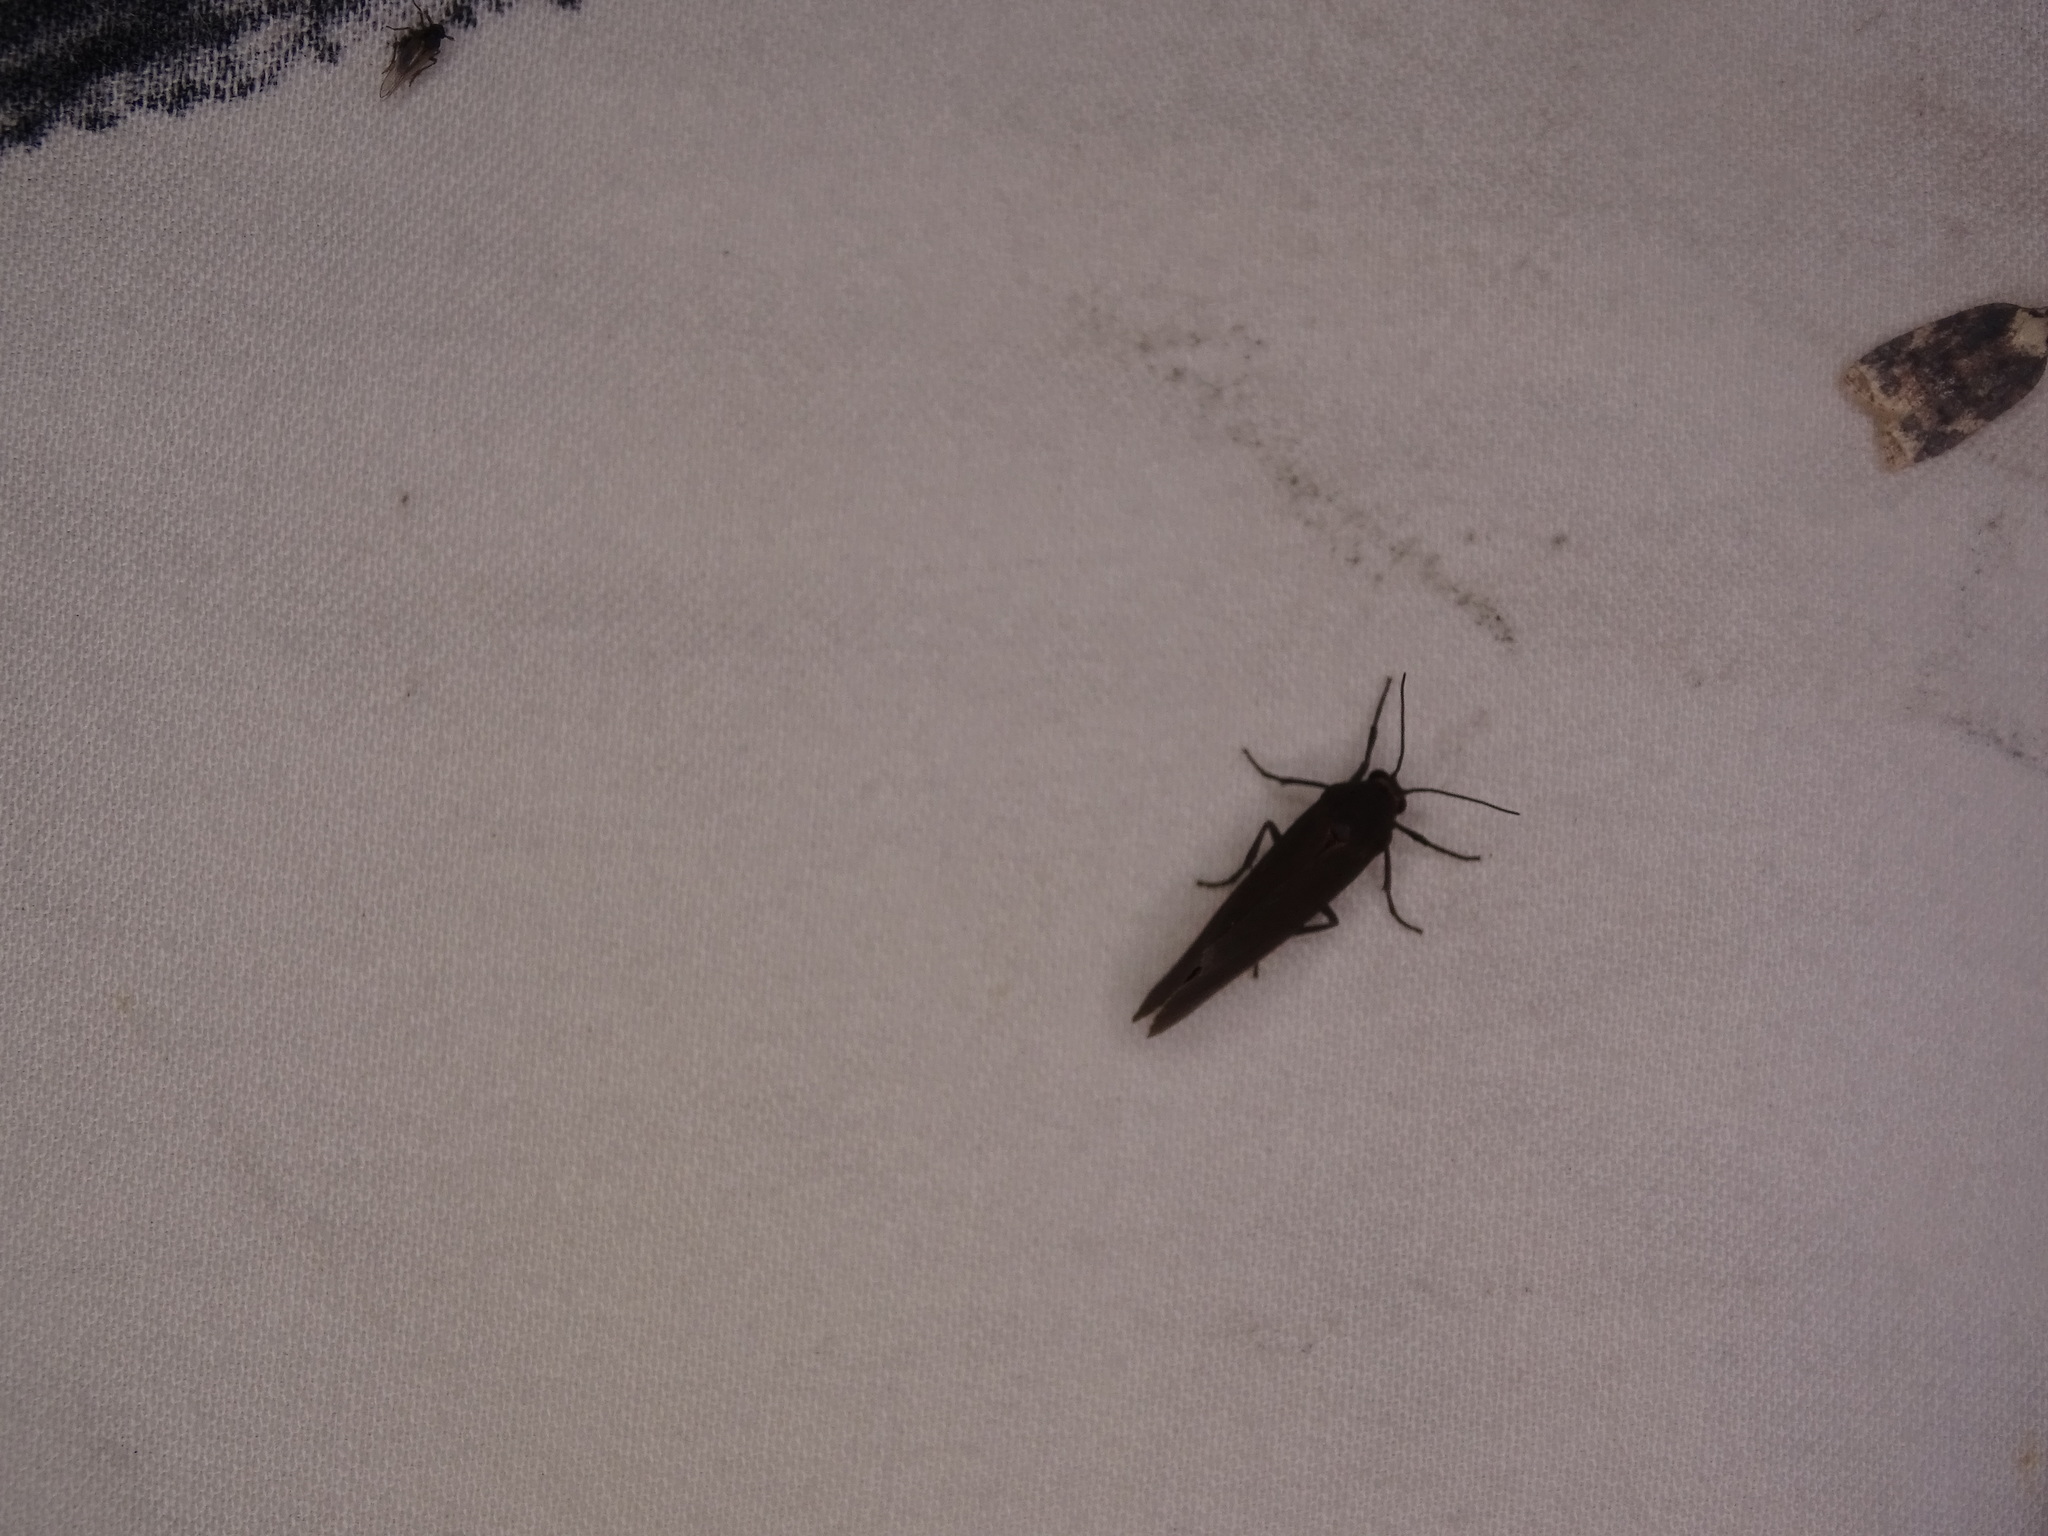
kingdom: Animalia
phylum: Arthropoda
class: Insecta
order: Lepidoptera
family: Erebidae
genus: Virbia
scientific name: Virbia laeta
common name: Joyful holomelina moth
